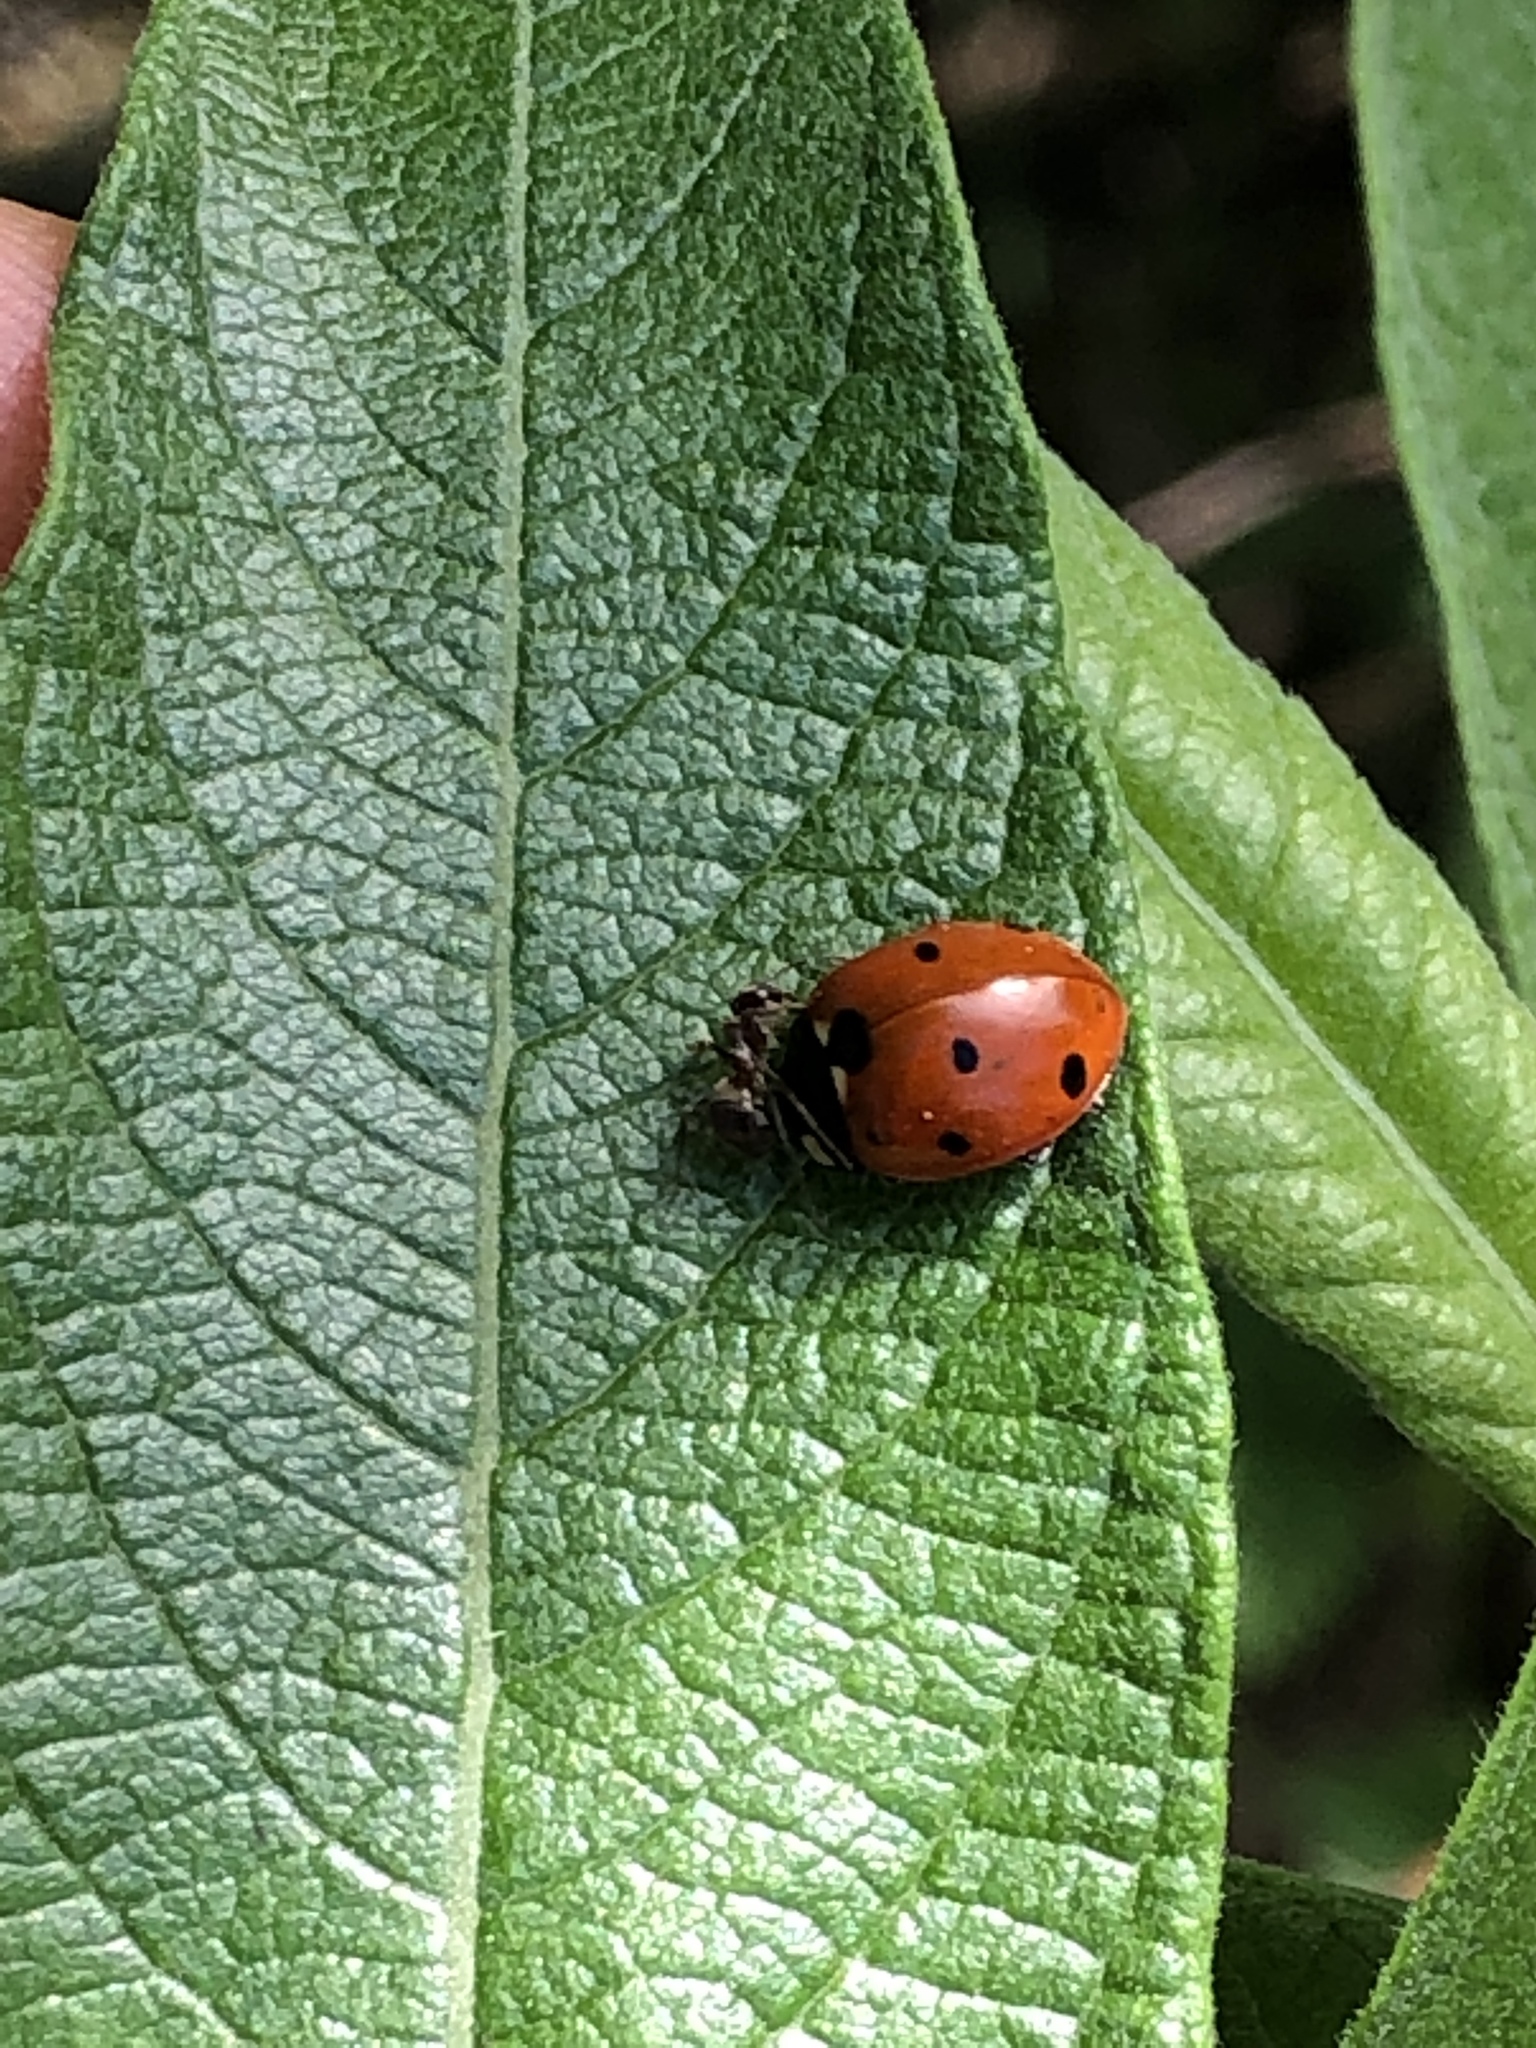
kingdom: Animalia
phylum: Arthropoda
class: Insecta
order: Coleoptera
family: Coccinellidae
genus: Coccinella
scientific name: Coccinella septempunctata
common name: Sevenspotted lady beetle
